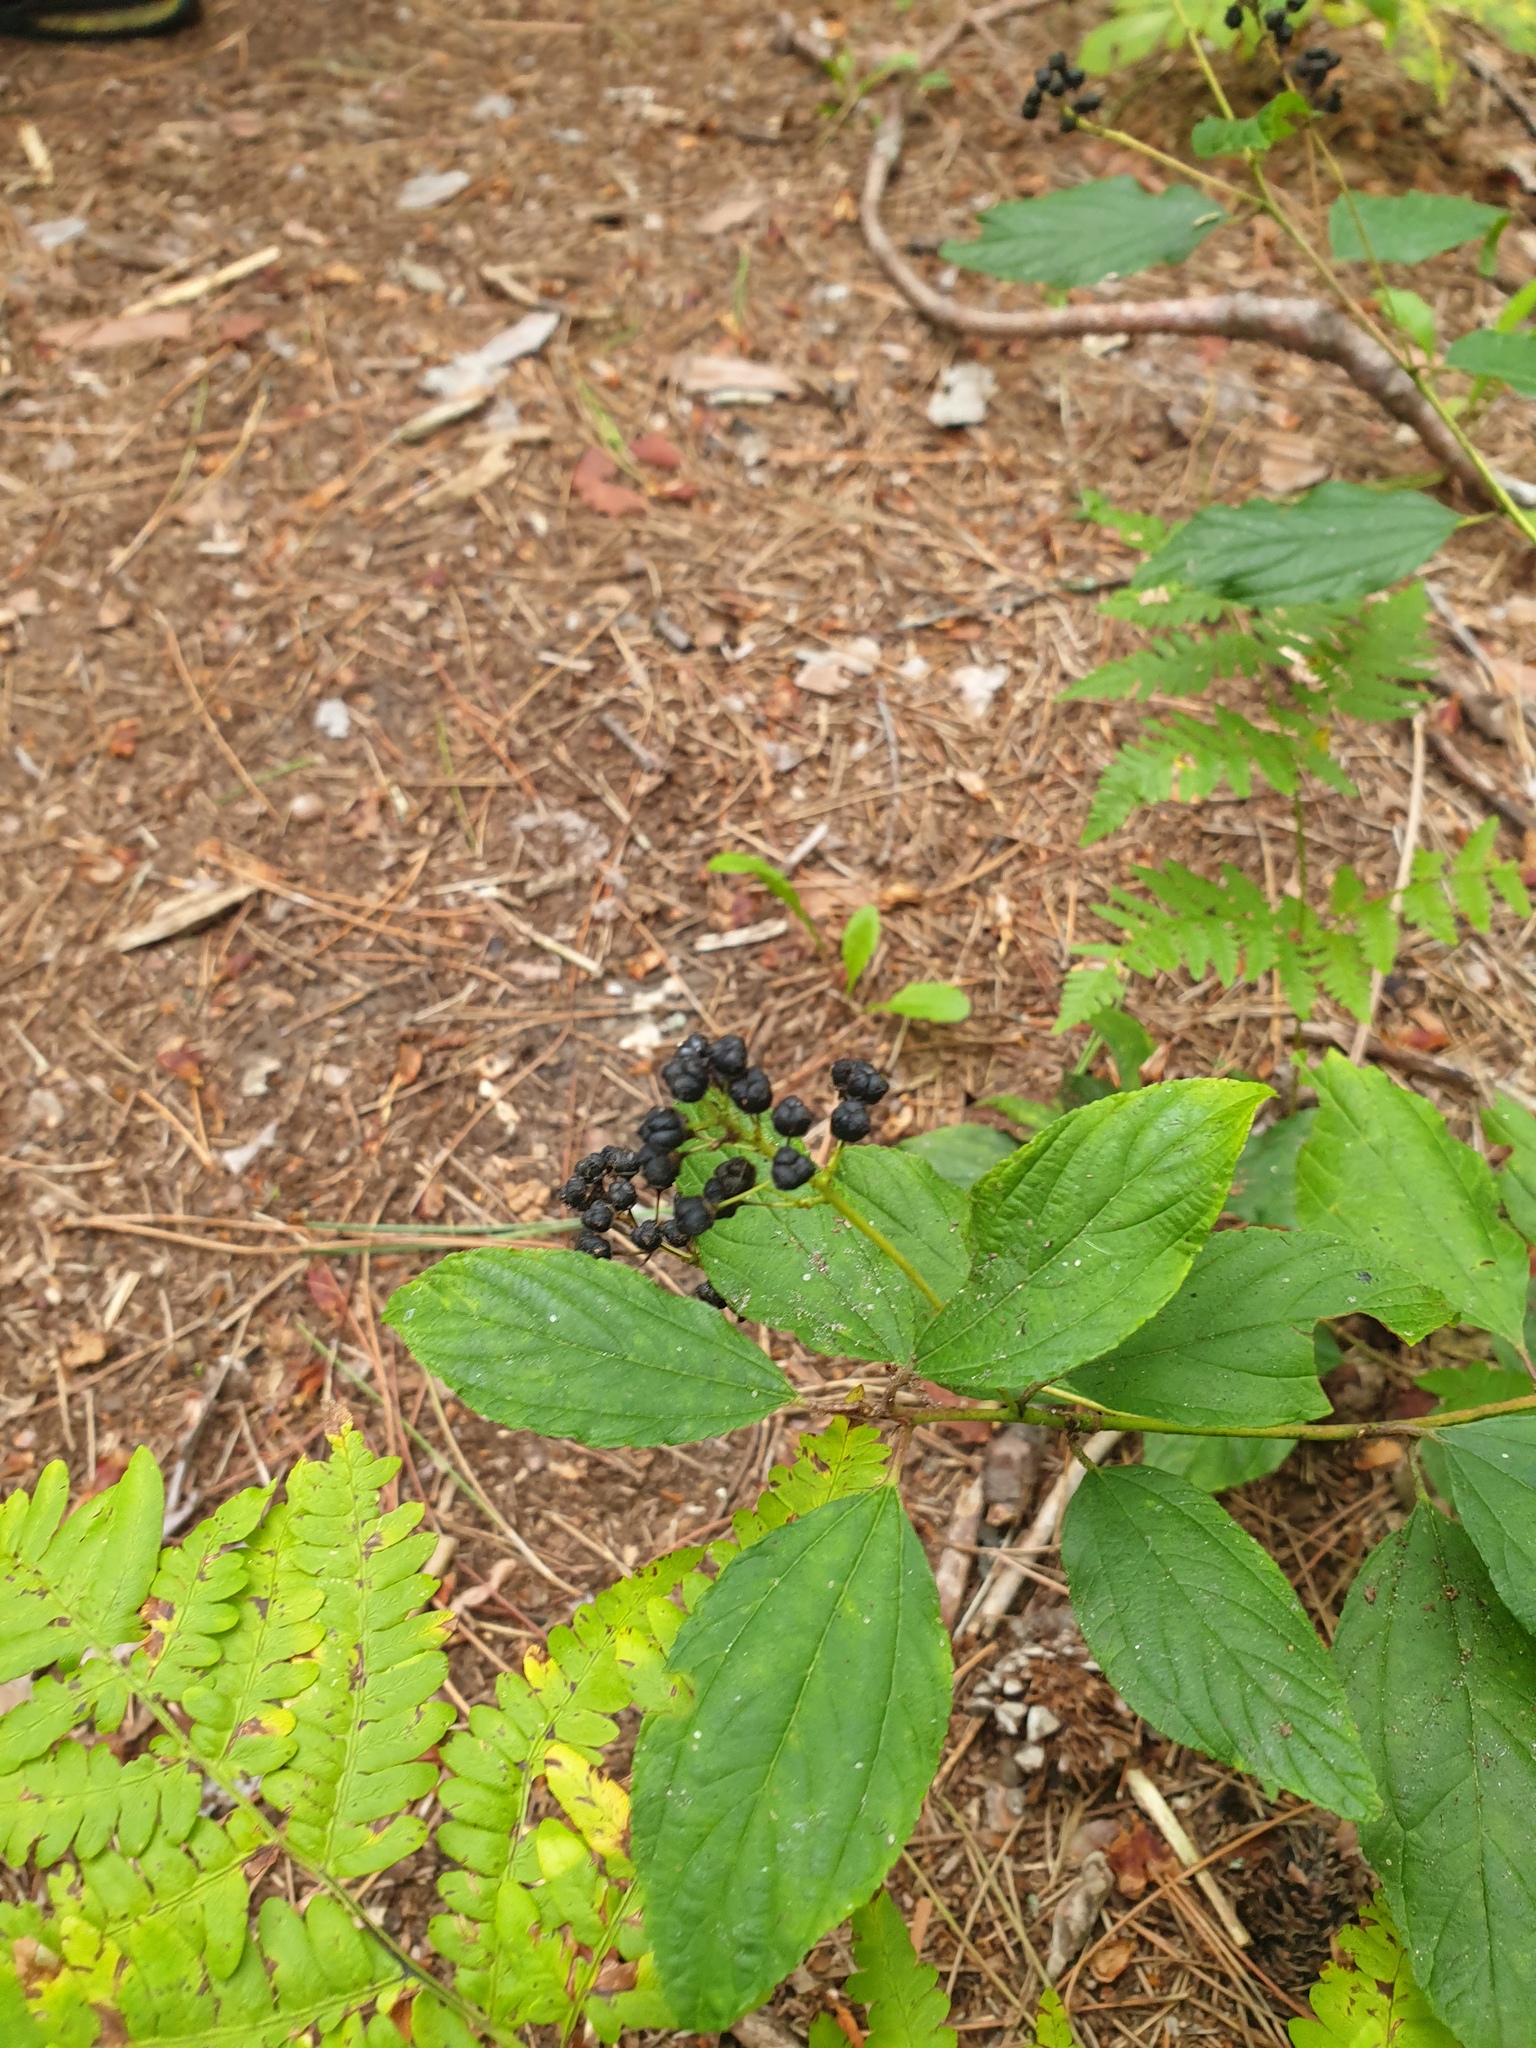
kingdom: Plantae
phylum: Tracheophyta
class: Magnoliopsida
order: Rosales
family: Rhamnaceae
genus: Ceanothus
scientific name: Ceanothus americanus
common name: Redroot
